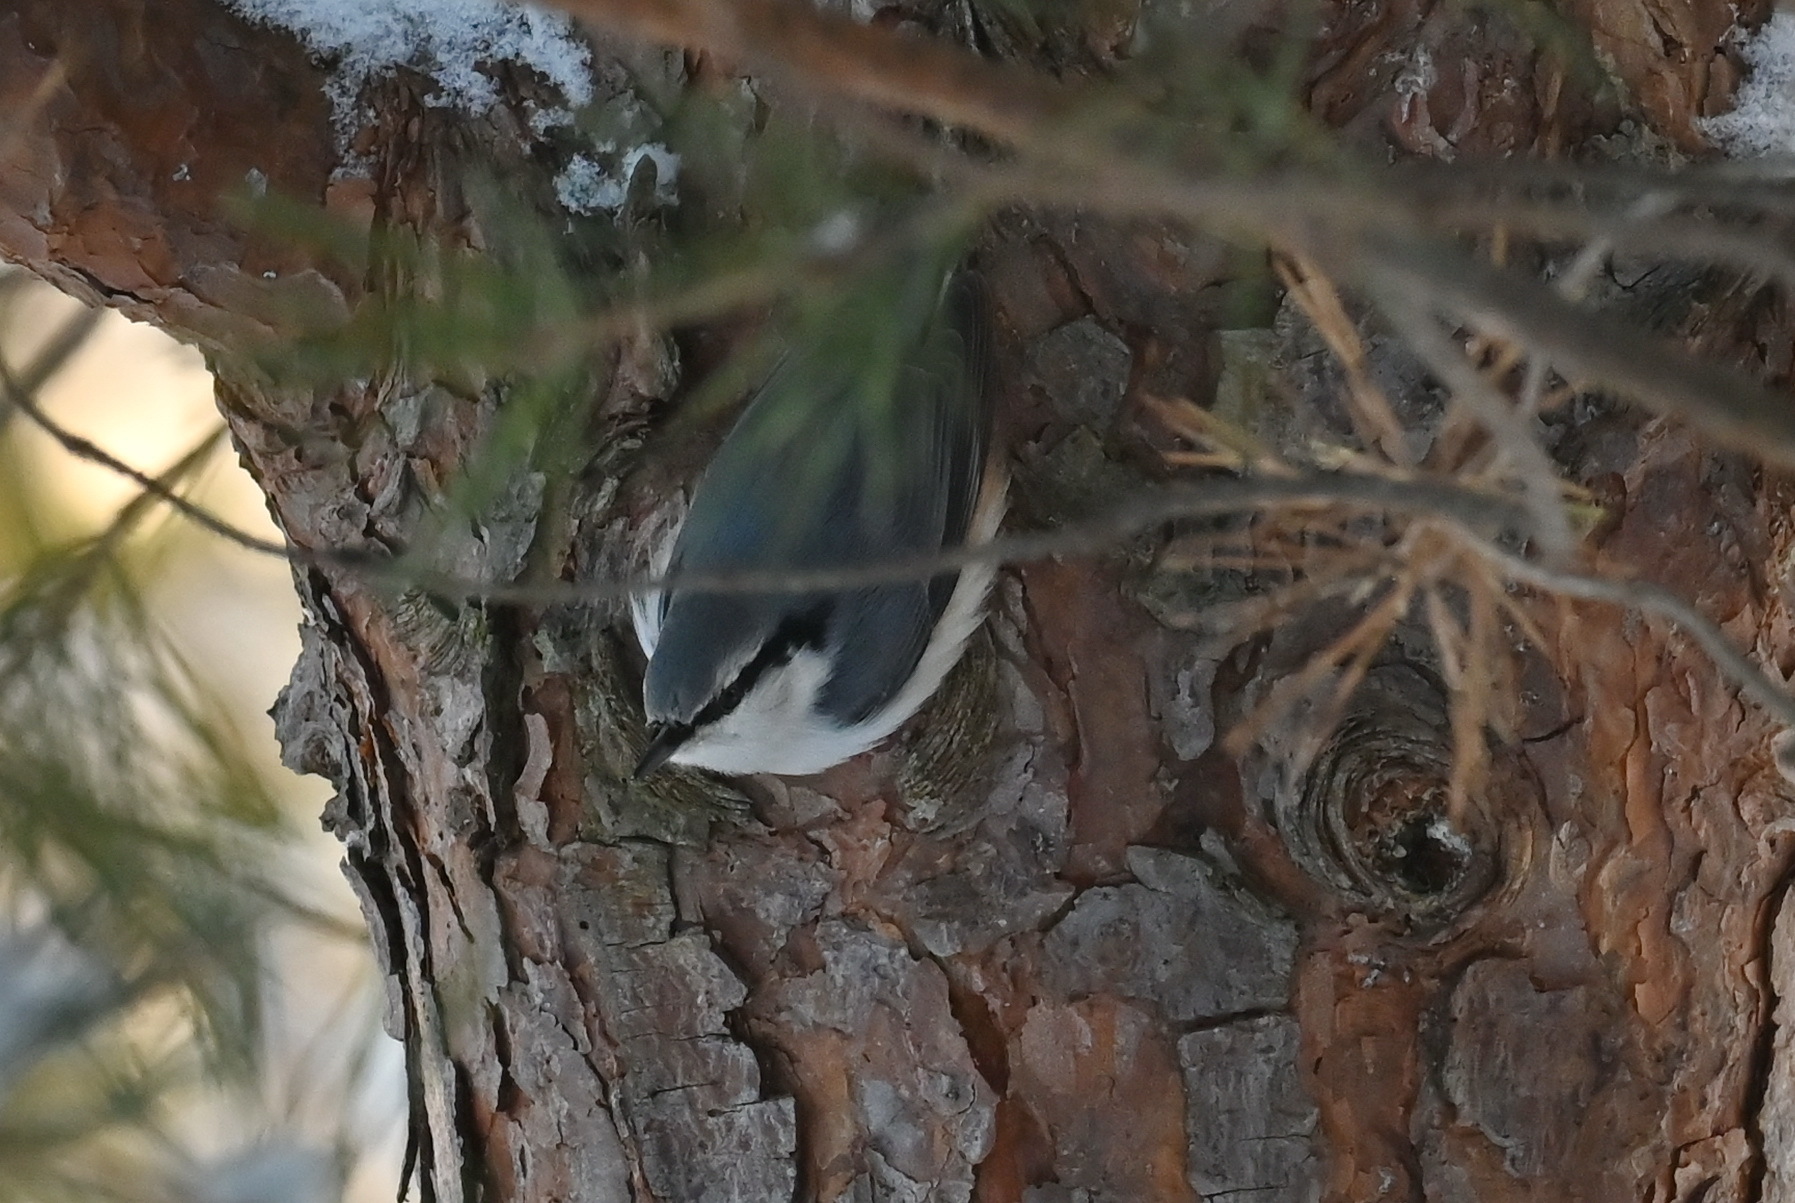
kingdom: Animalia
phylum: Chordata
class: Aves
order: Passeriformes
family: Sittidae
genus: Sitta
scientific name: Sitta europaea
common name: Eurasian nuthatch
